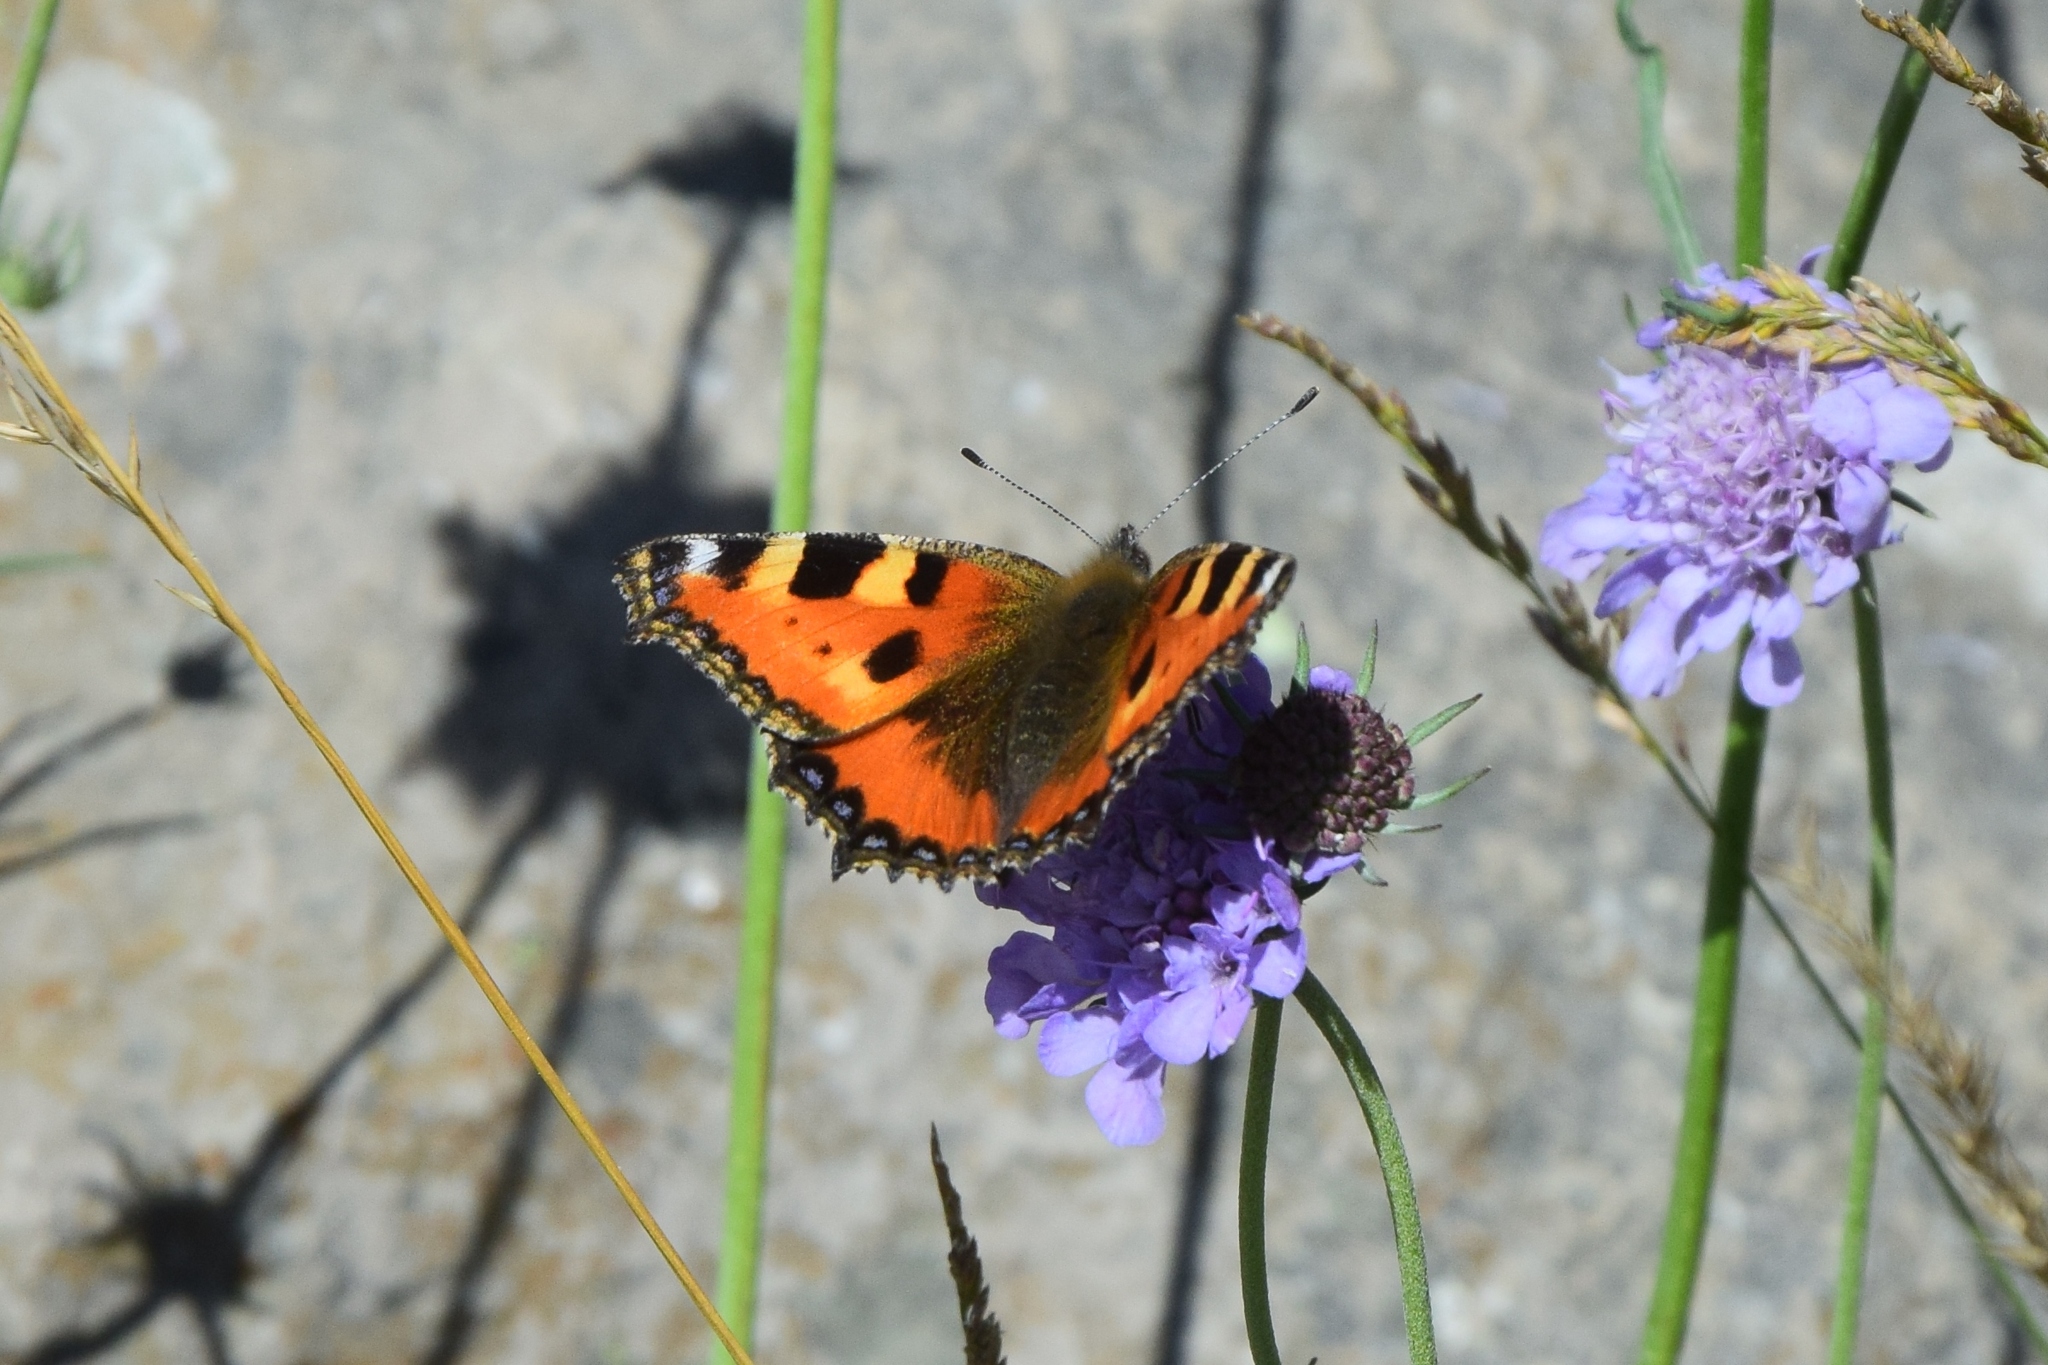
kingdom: Animalia
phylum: Arthropoda
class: Insecta
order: Lepidoptera
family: Nymphalidae
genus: Aglais
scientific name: Aglais urticae
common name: Small tortoiseshell
